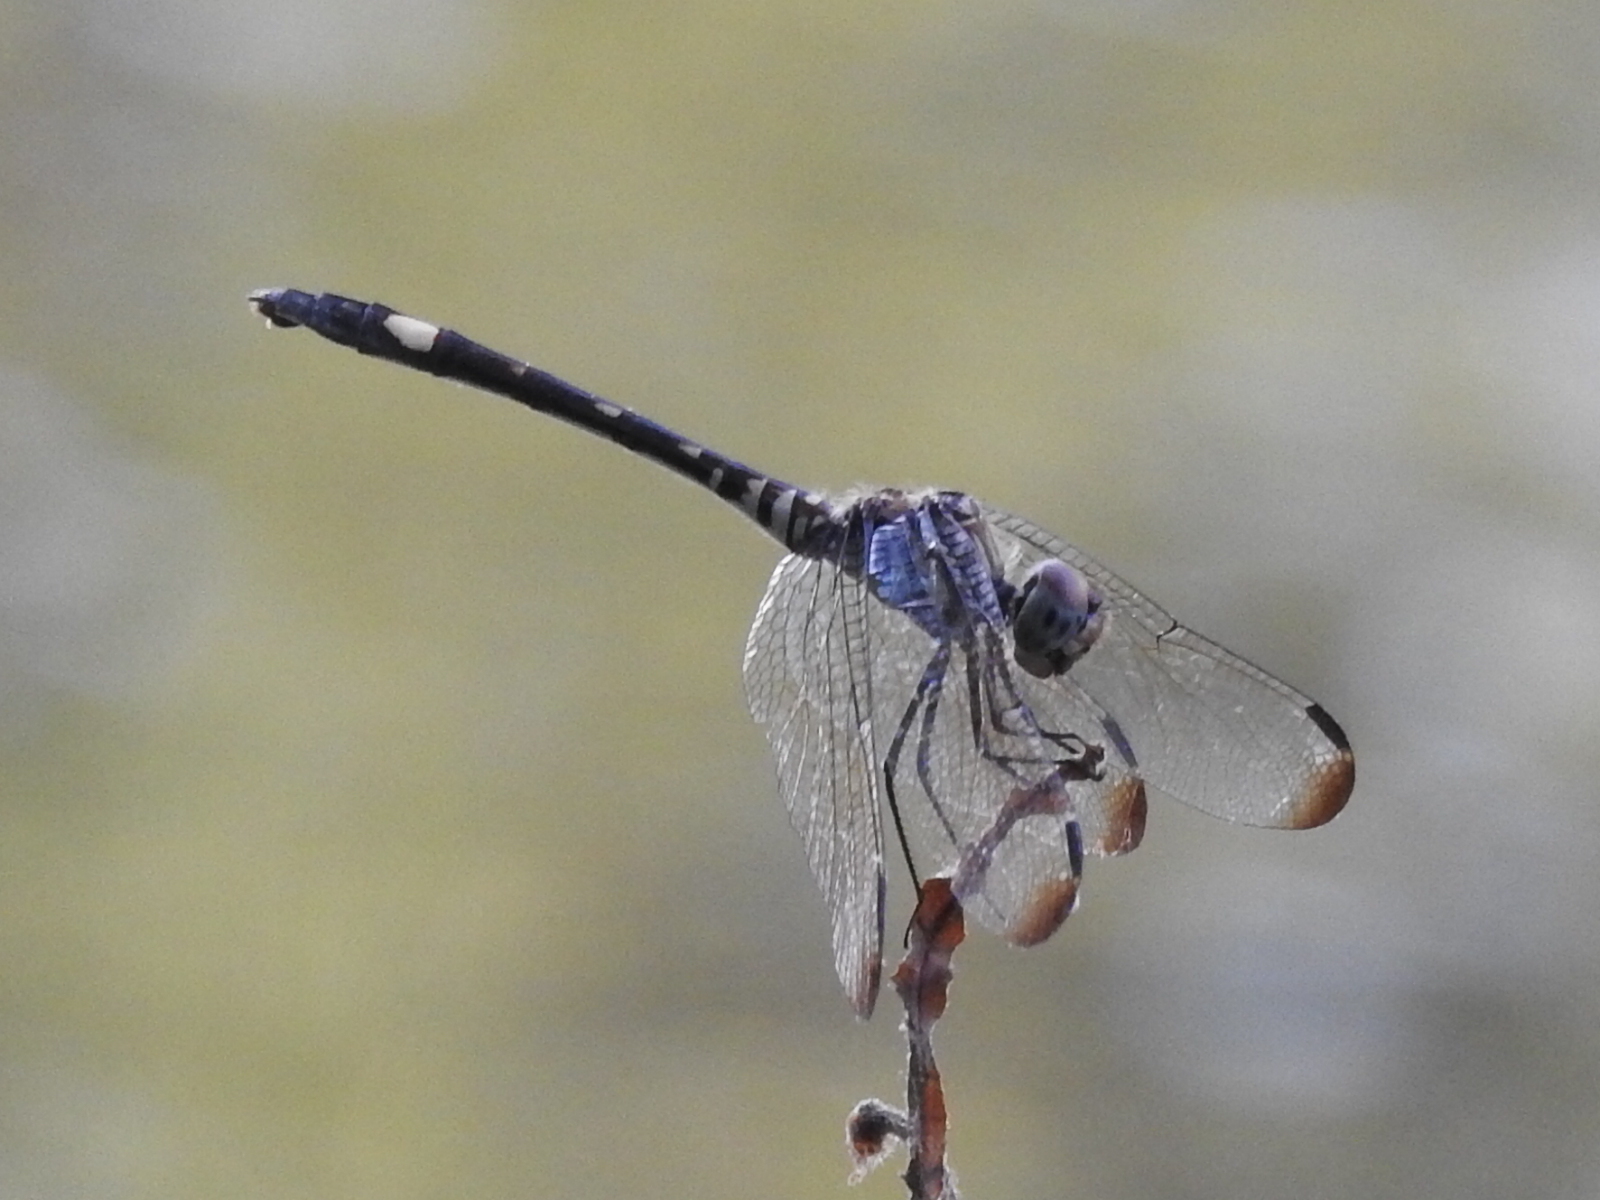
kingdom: Animalia
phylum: Arthropoda
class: Insecta
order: Odonata
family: Libellulidae
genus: Dythemis
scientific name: Dythemis velox
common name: Swift setwing
